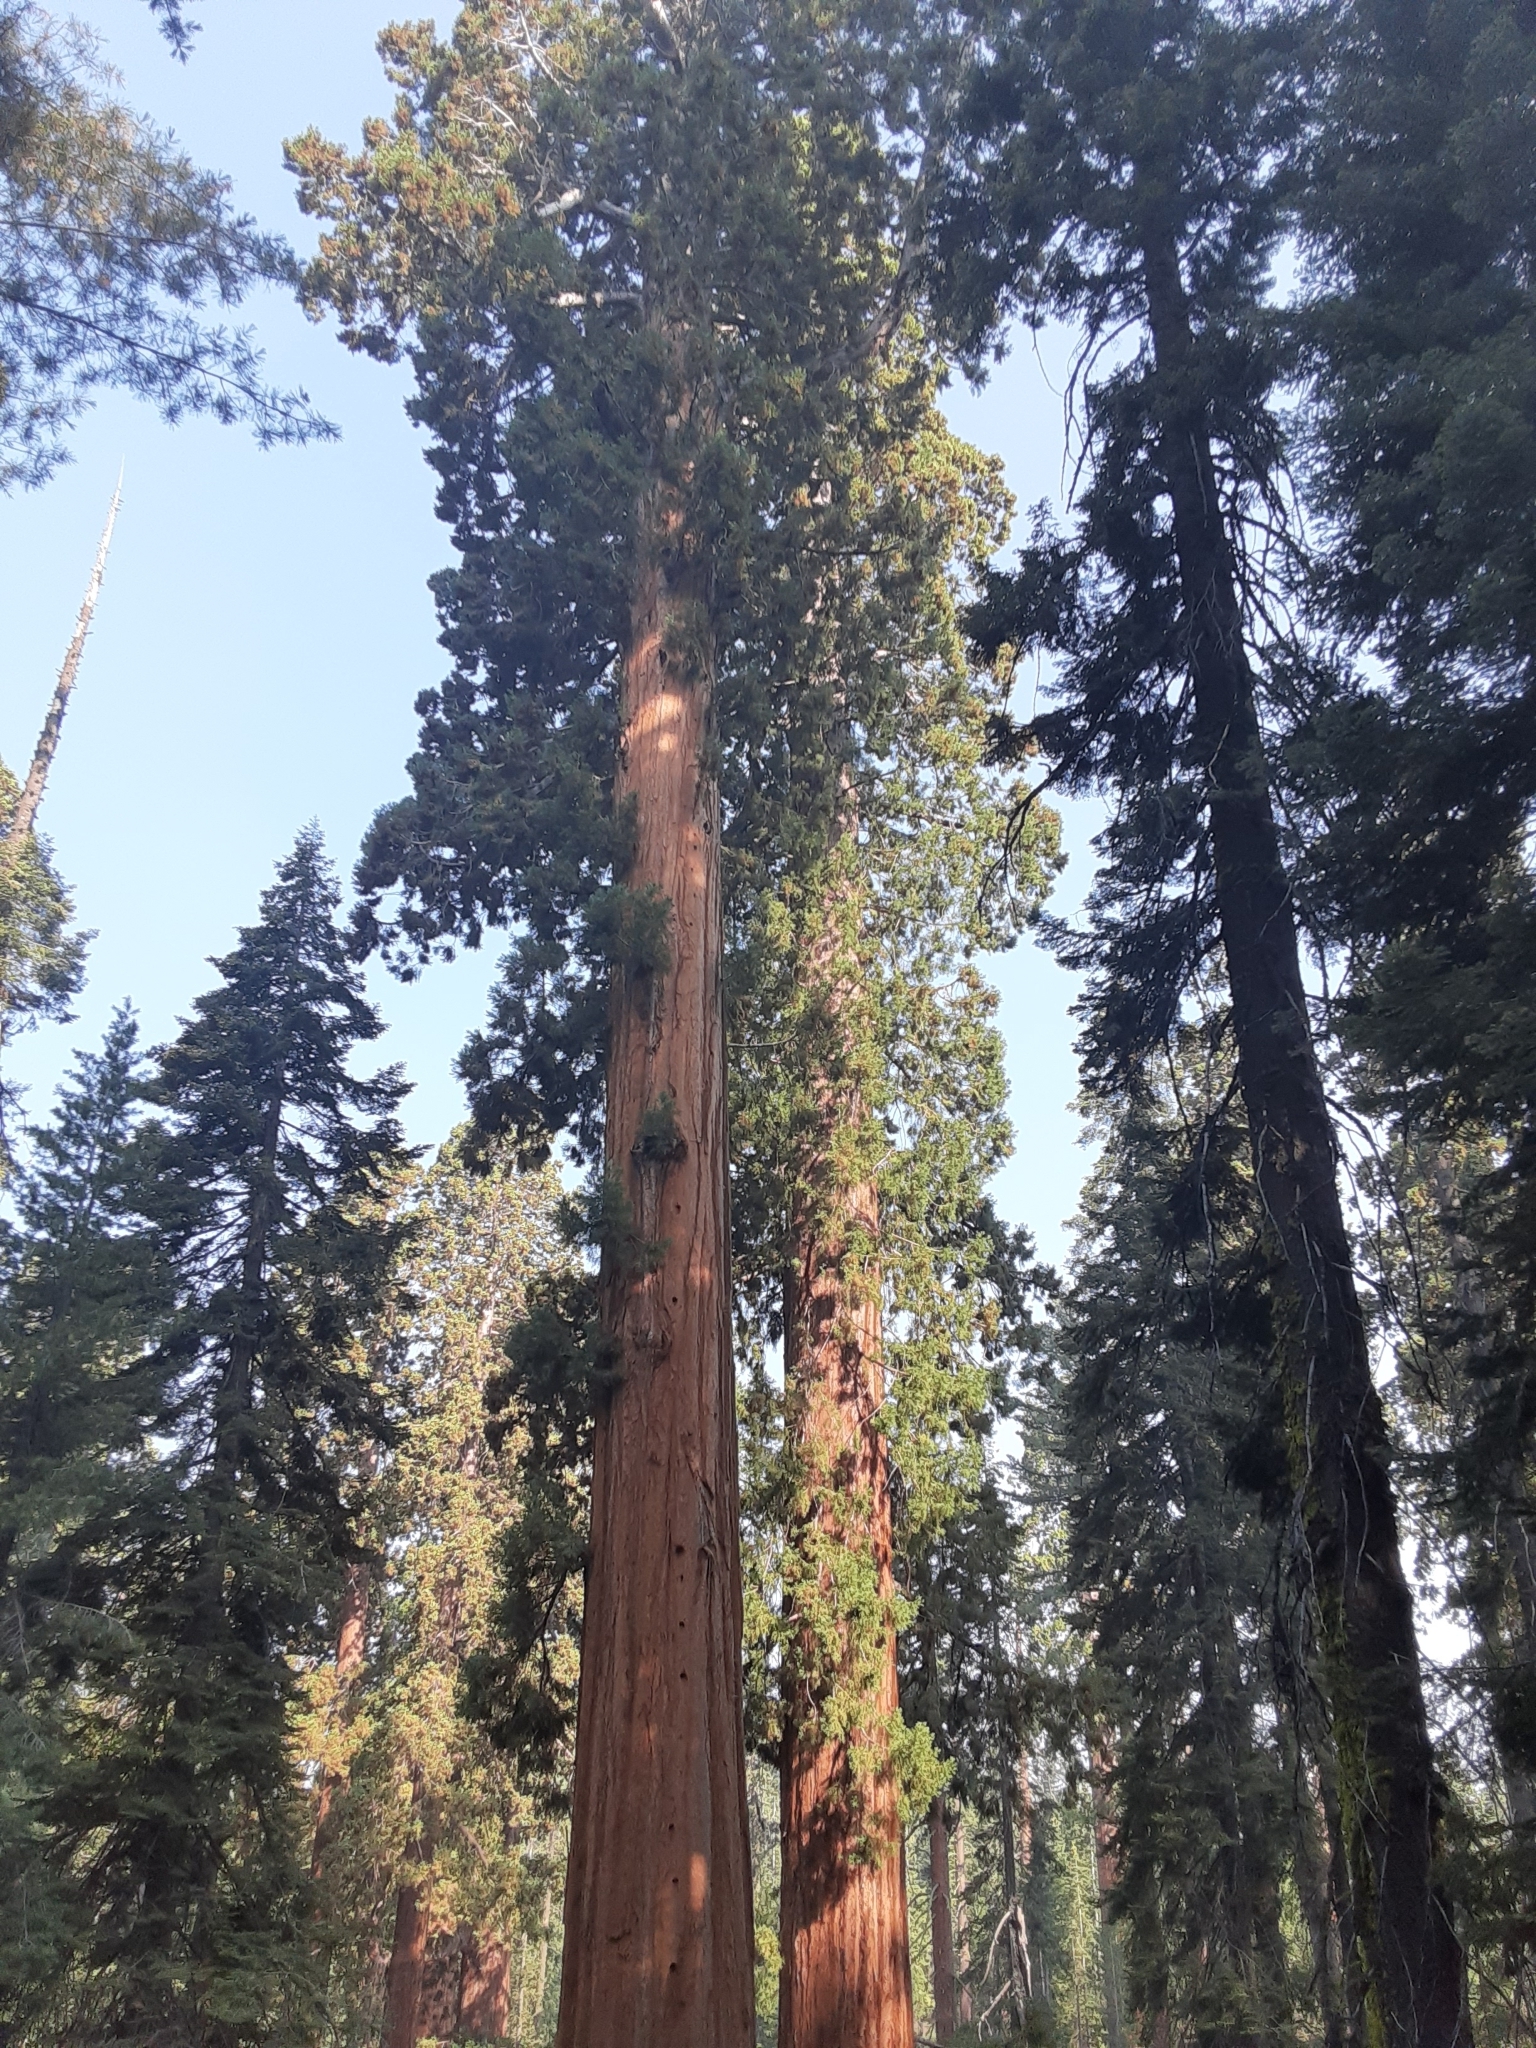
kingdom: Plantae
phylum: Tracheophyta
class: Pinopsida
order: Pinales
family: Cupressaceae
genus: Sequoiadendron
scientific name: Sequoiadendron giganteum
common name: Wellingtonia
